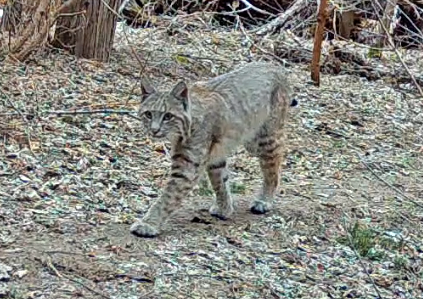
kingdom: Animalia
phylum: Chordata
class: Mammalia
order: Carnivora
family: Felidae
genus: Lynx
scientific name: Lynx rufus
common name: Bobcat
